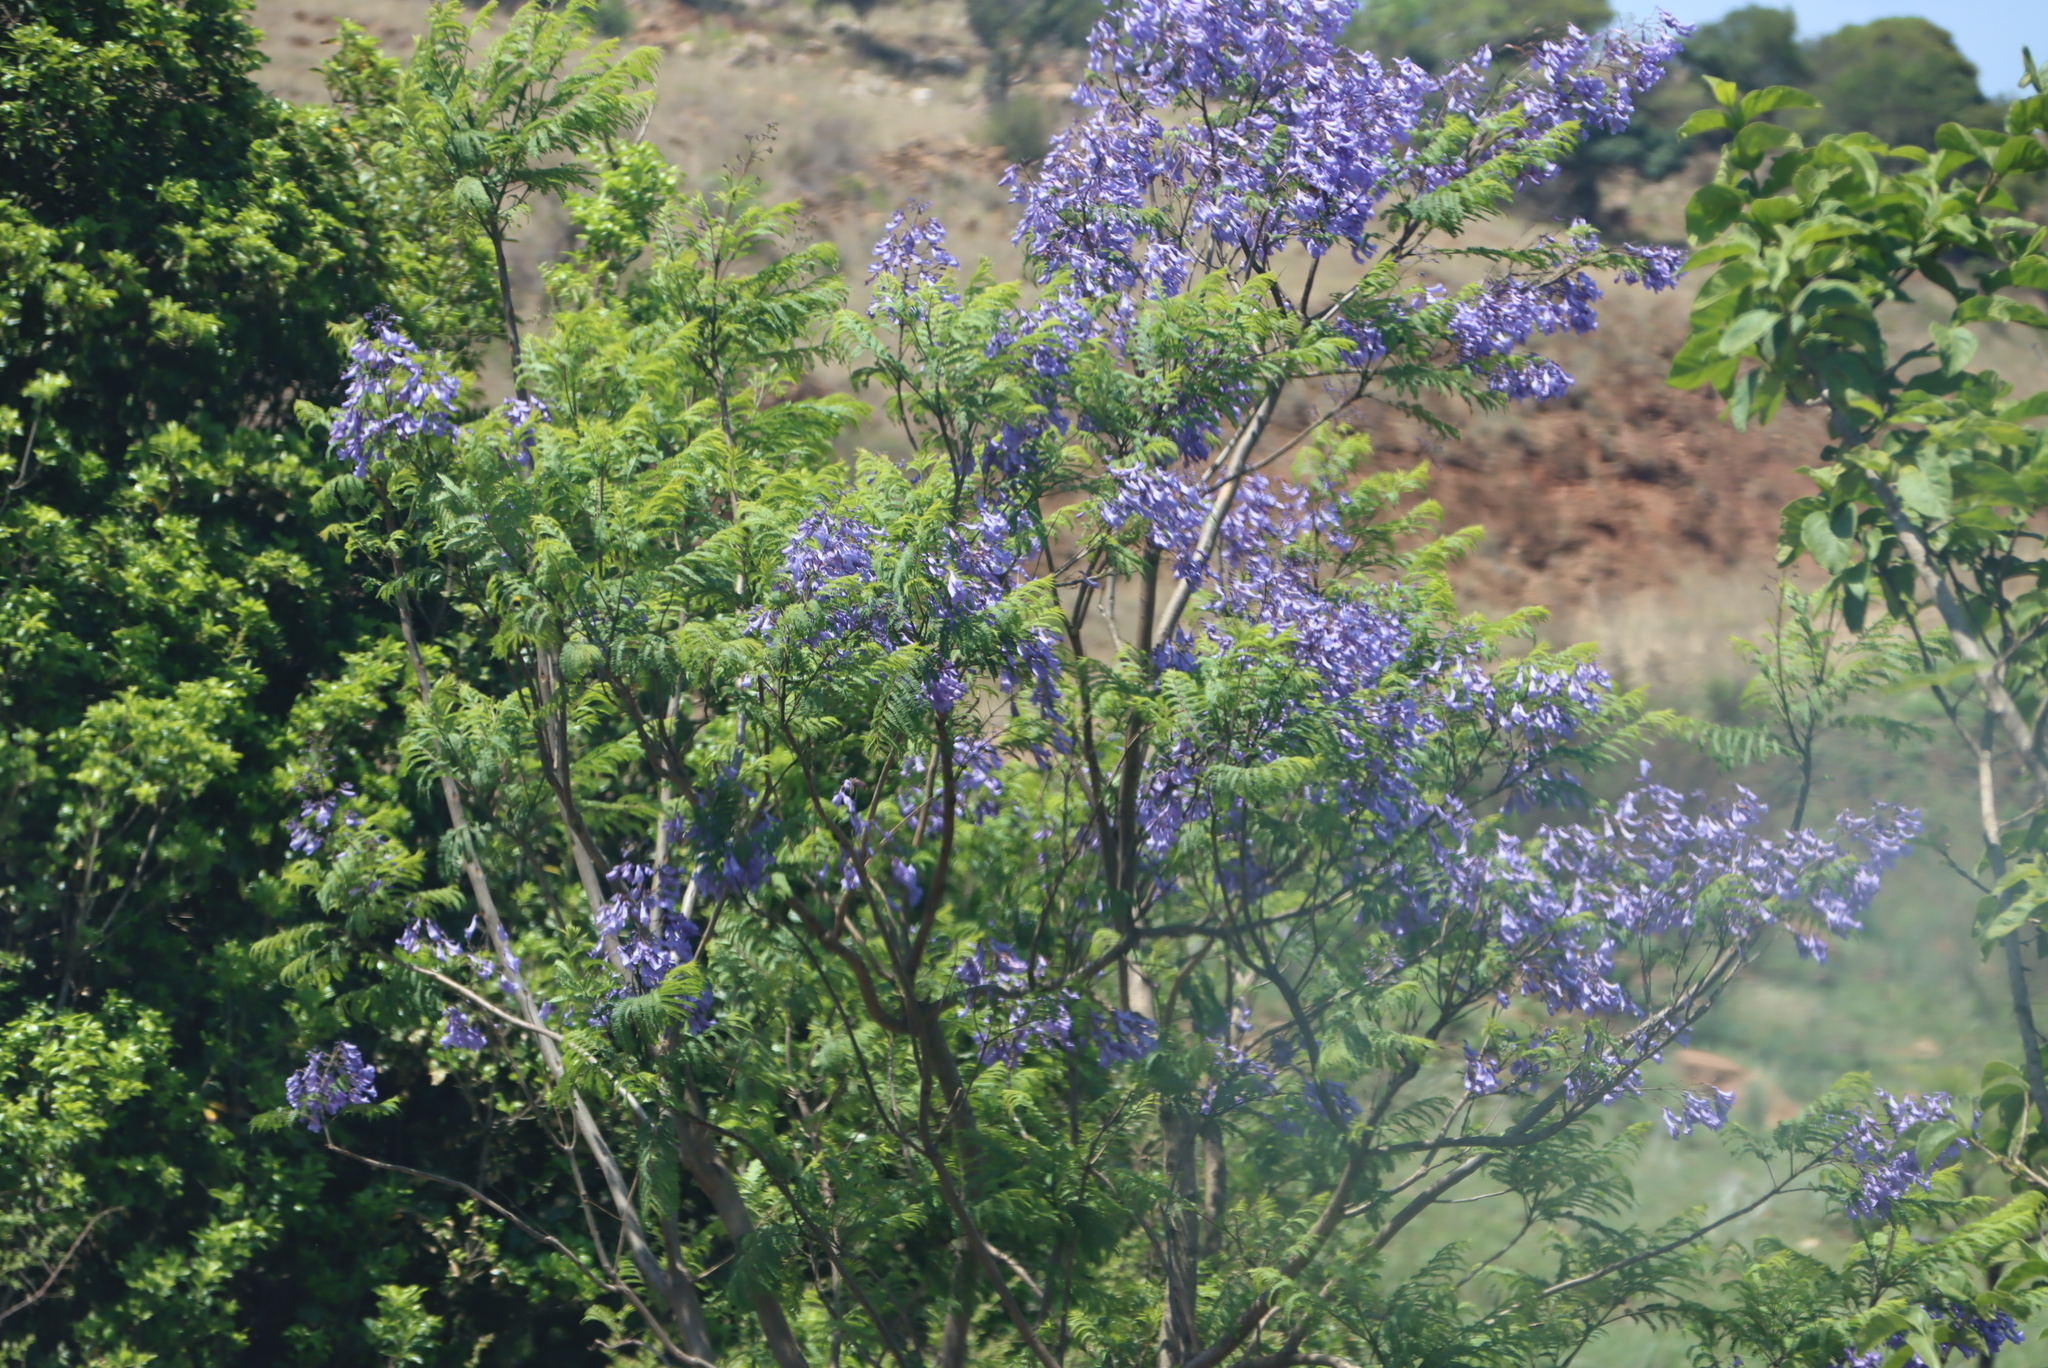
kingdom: Plantae
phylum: Tracheophyta
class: Magnoliopsida
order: Lamiales
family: Bignoniaceae
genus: Jacaranda
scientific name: Jacaranda mimosifolia
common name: Black poui
